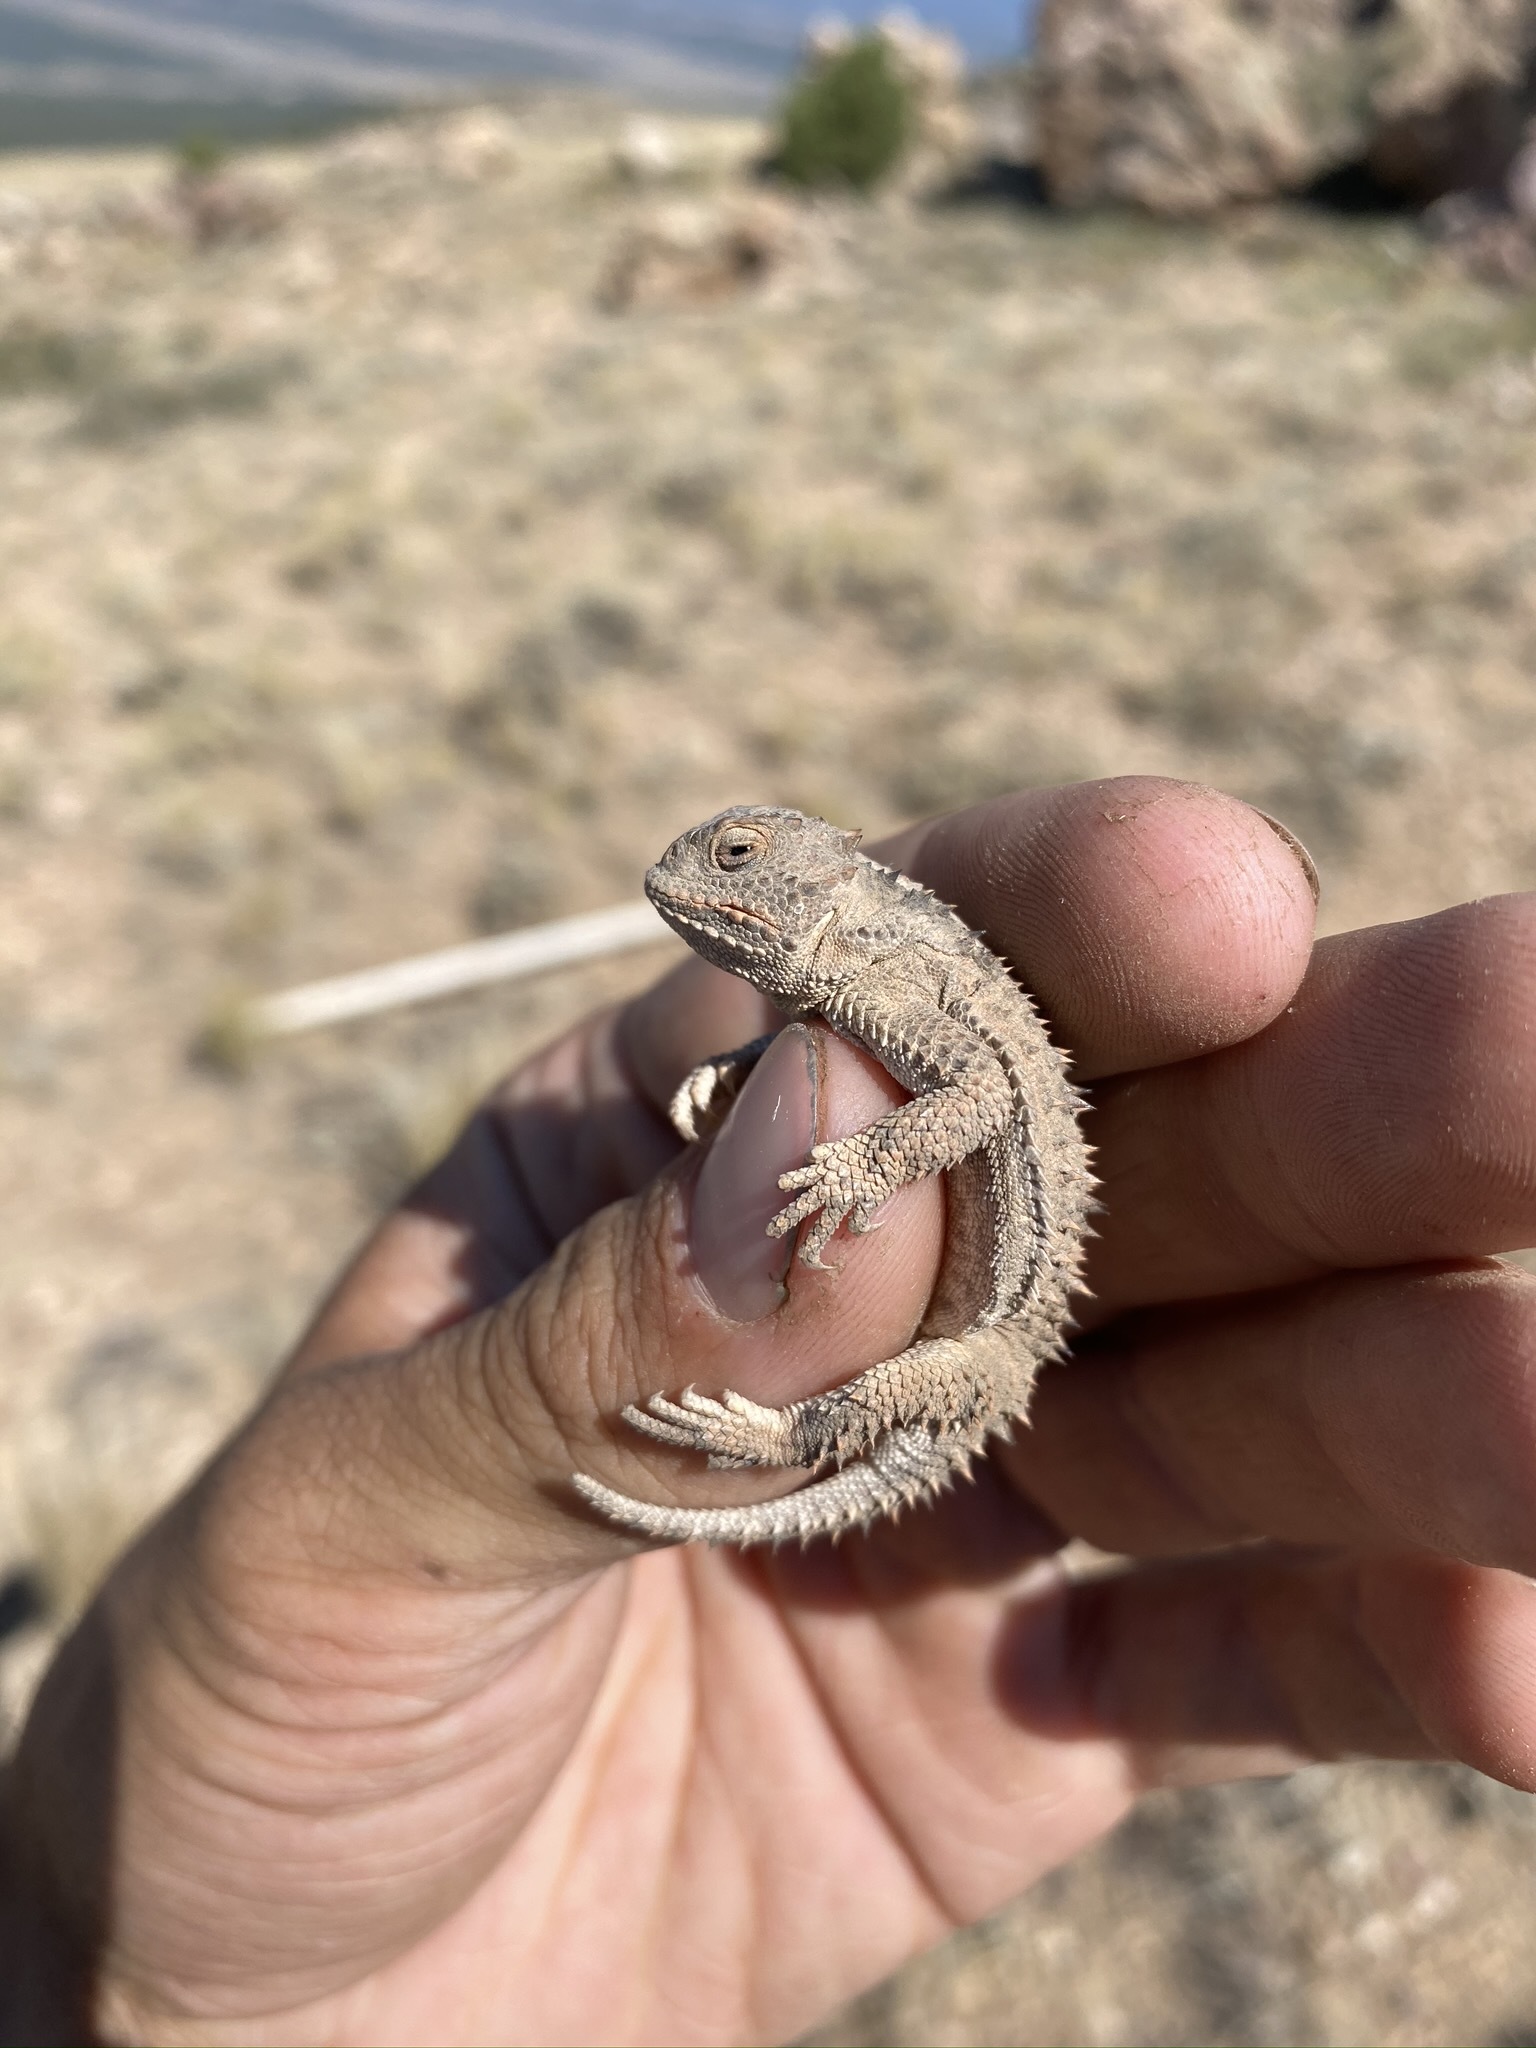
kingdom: Animalia
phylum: Chordata
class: Squamata
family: Phrynosomatidae
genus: Phrynosoma
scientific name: Phrynosoma hernandesi
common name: Greater short-horned lizard
